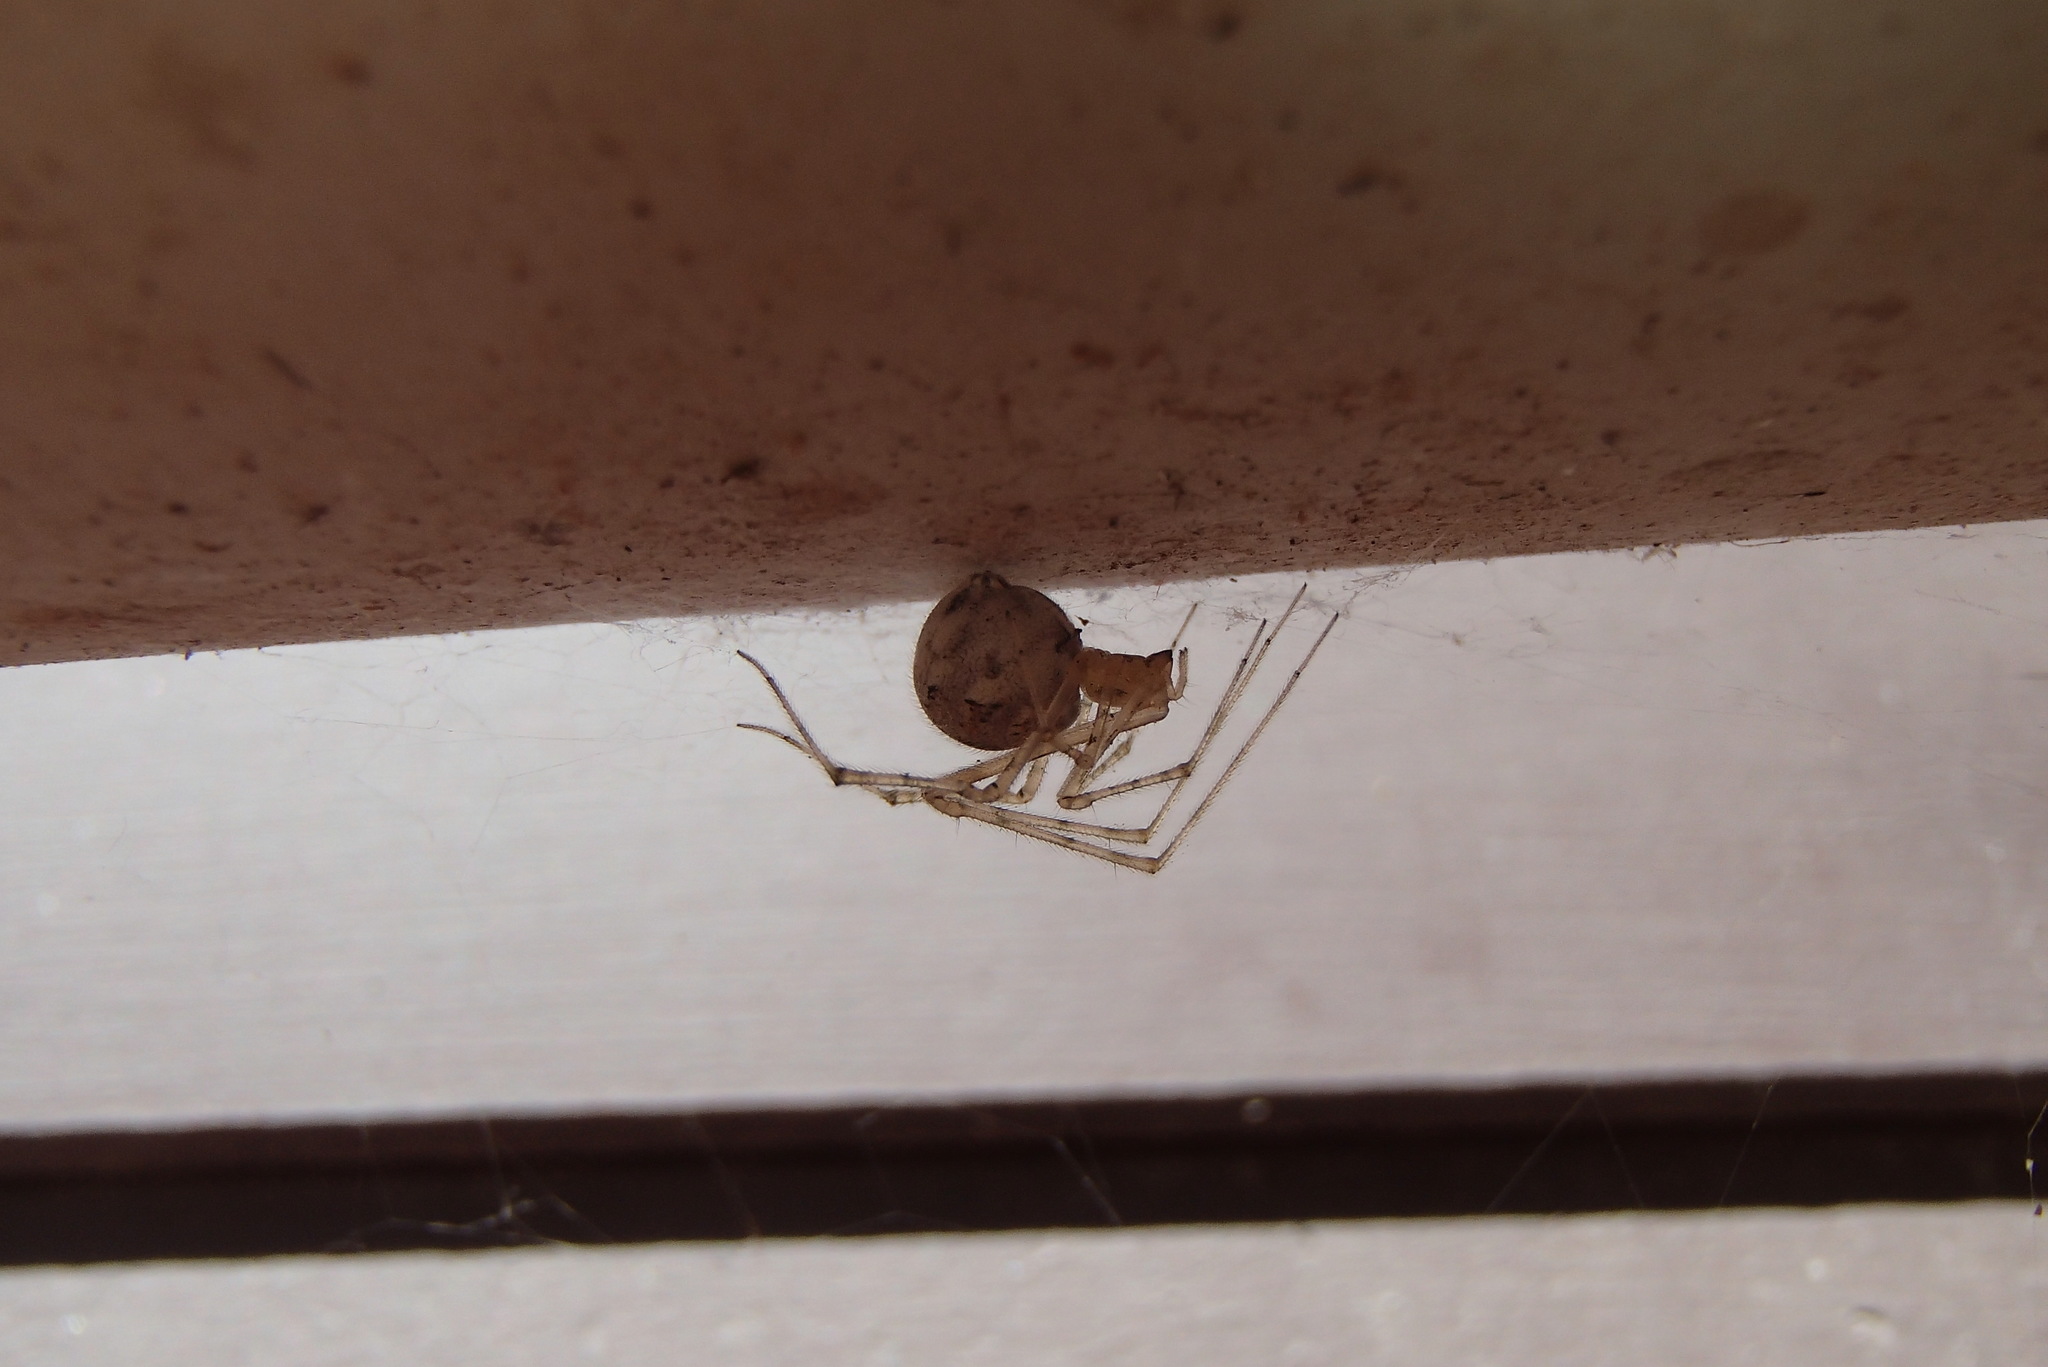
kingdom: Animalia
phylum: Arthropoda
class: Arachnida
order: Araneae
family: Theridiidae
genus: Cryptachaea
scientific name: Cryptachaea gigantipes
